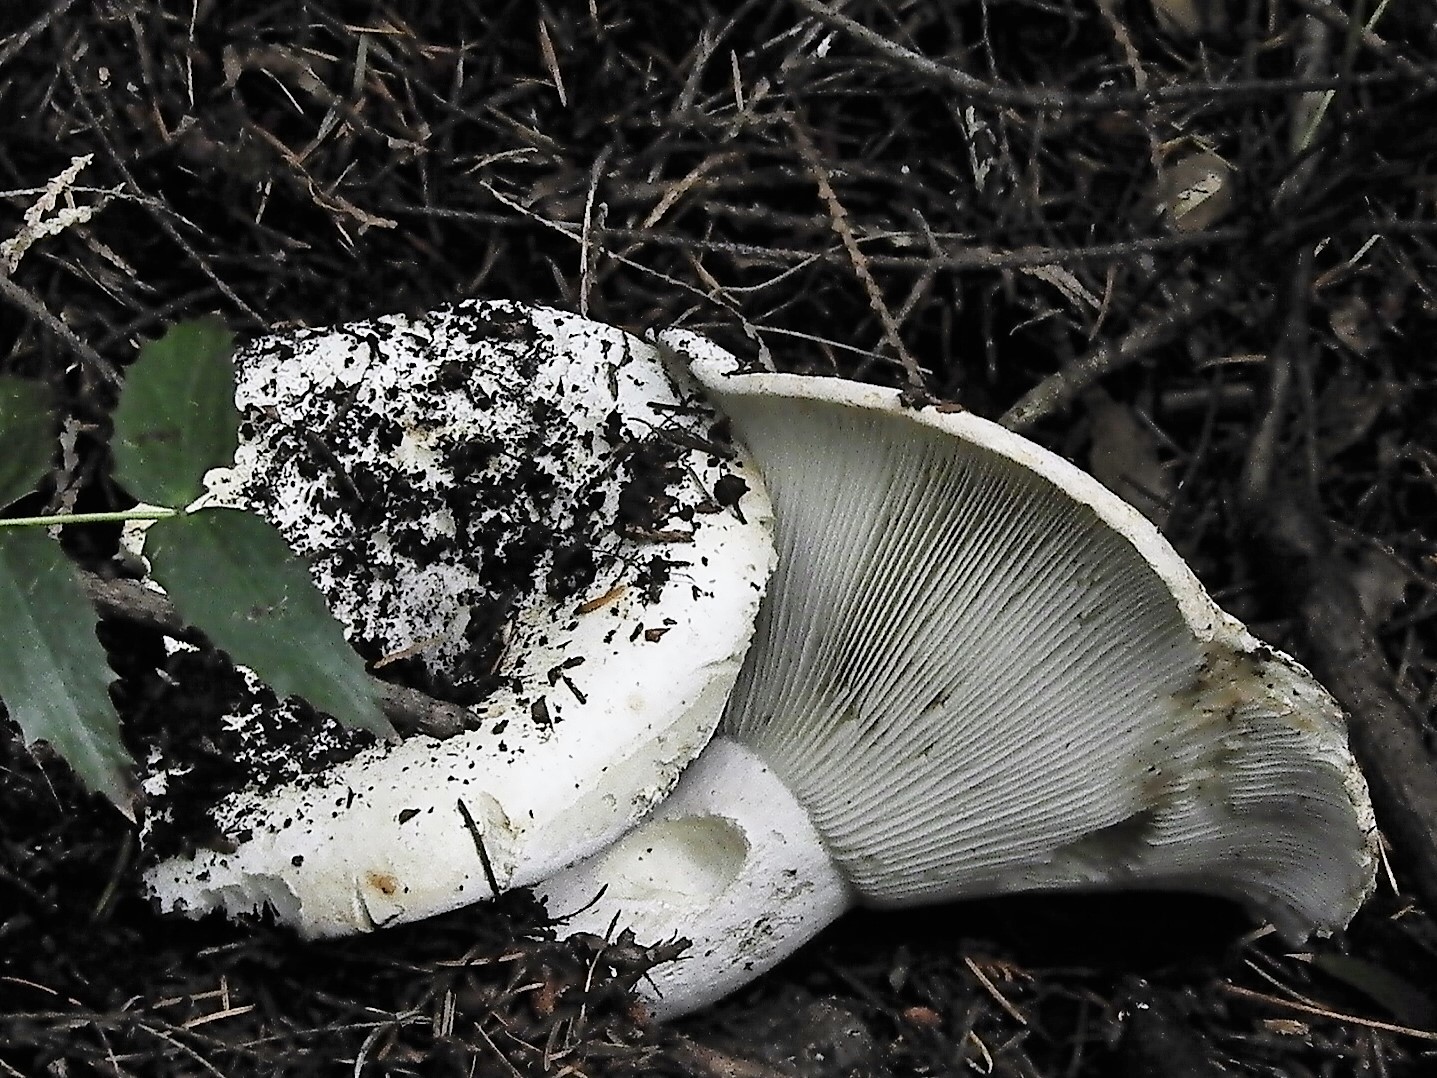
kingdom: Fungi
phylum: Basidiomycota
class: Agaricomycetes
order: Russulales
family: Russulaceae
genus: Russula
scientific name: Russula brevipes
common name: Short-stemmed russula
